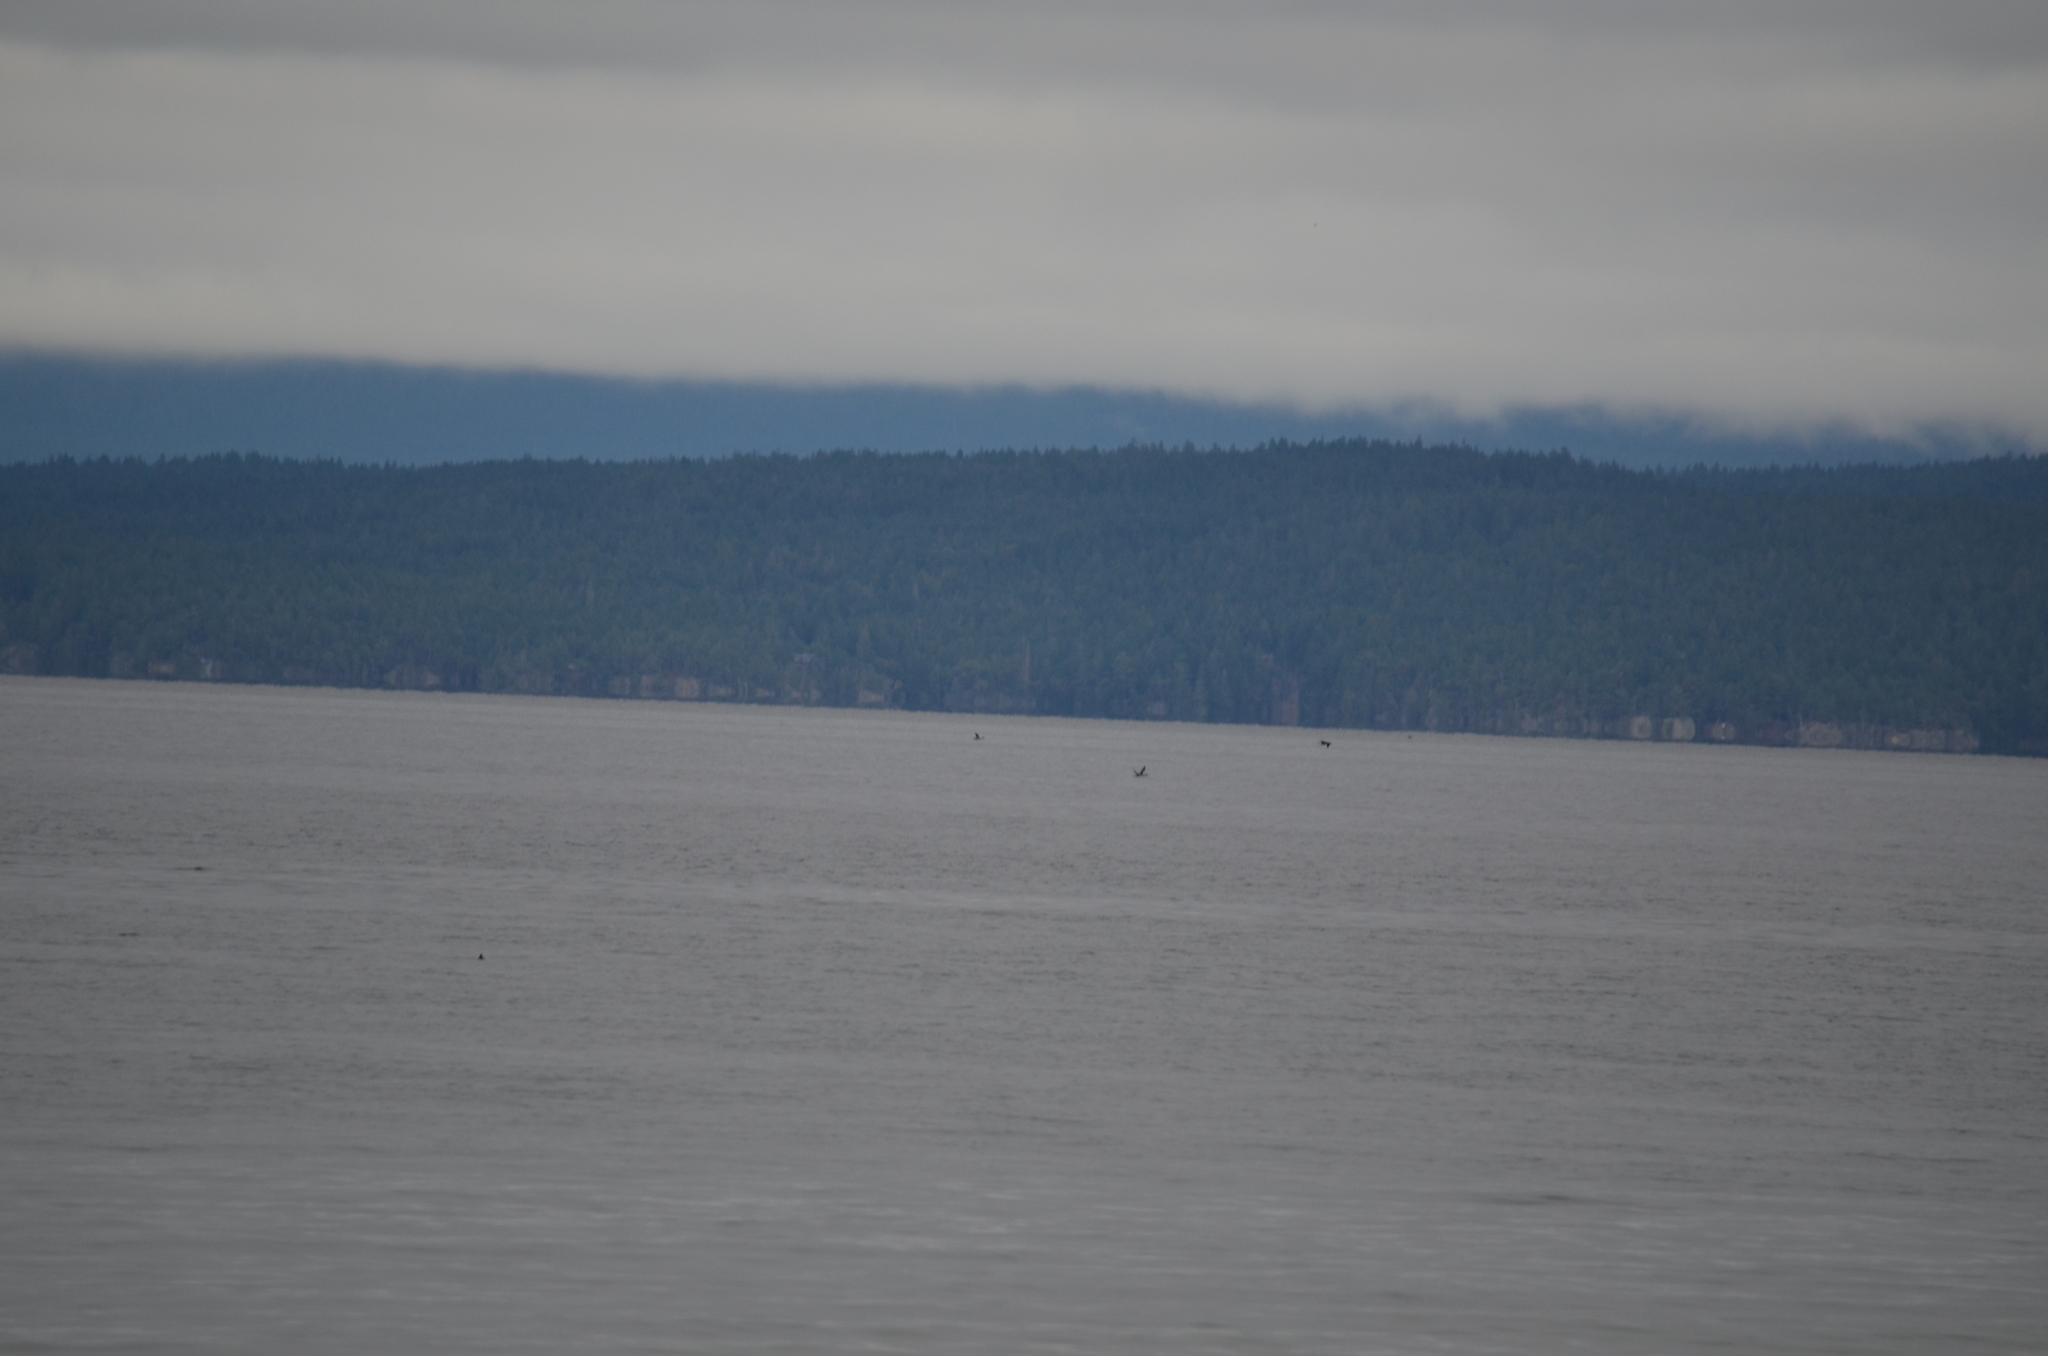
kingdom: Animalia
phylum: Chordata
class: Aves
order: Gaviiformes
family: Gaviidae
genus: Gavia
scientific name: Gavia immer
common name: Common loon
